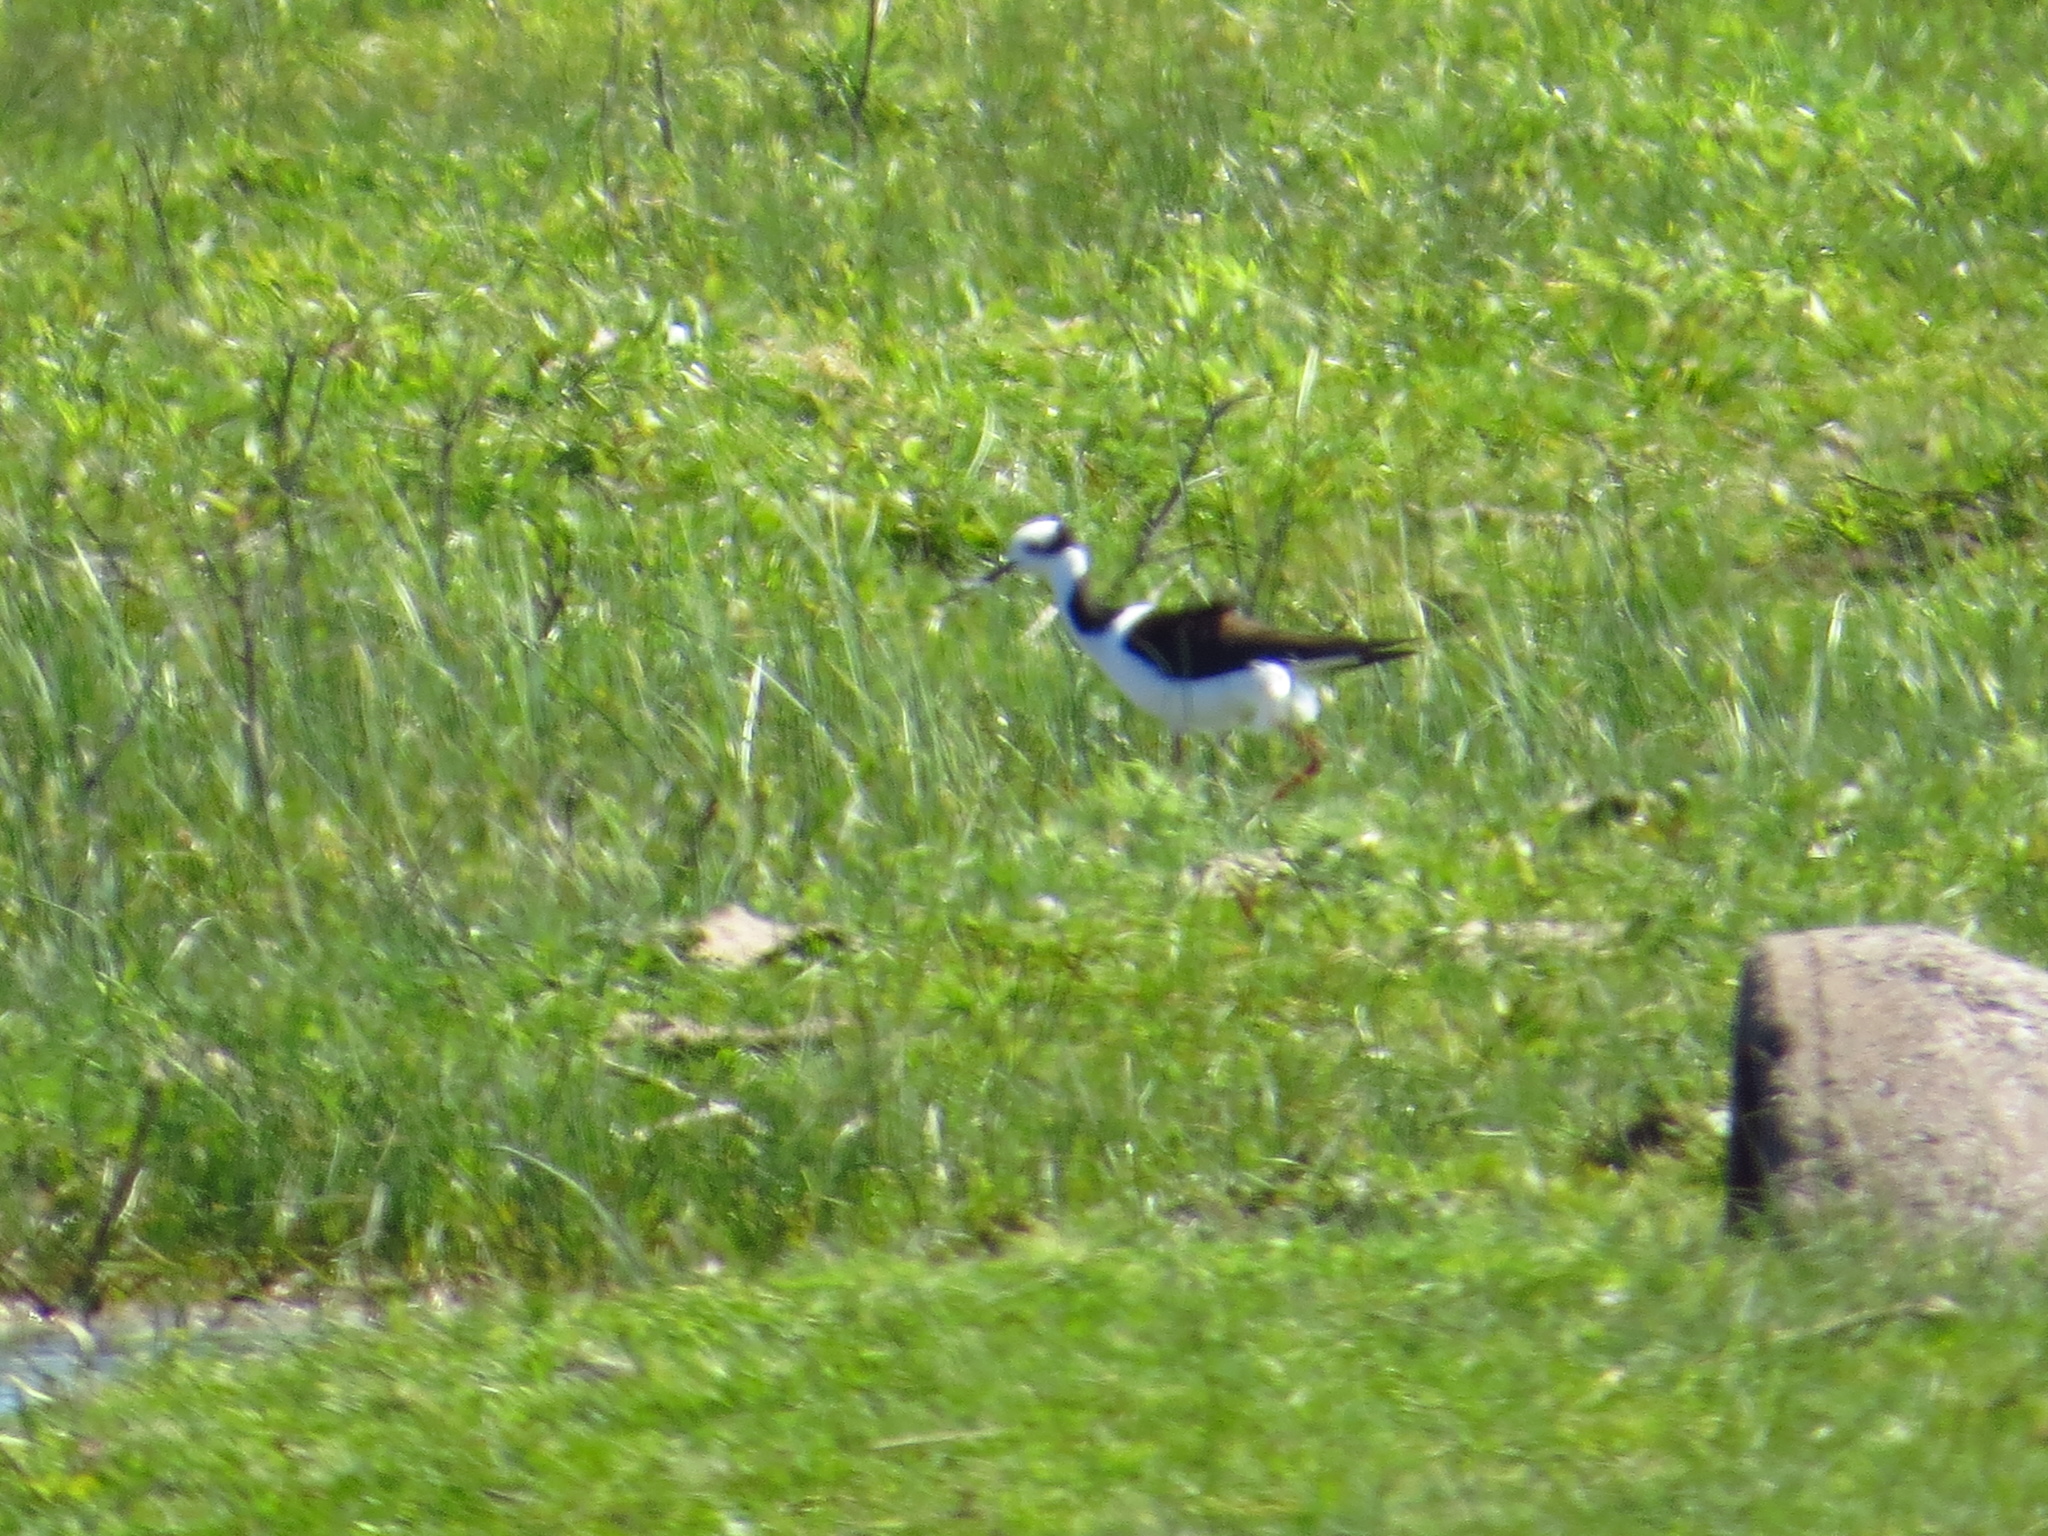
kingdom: Animalia
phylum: Chordata
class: Aves
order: Charadriiformes
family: Recurvirostridae
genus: Himantopus
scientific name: Himantopus mexicanus
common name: Black-necked stilt
